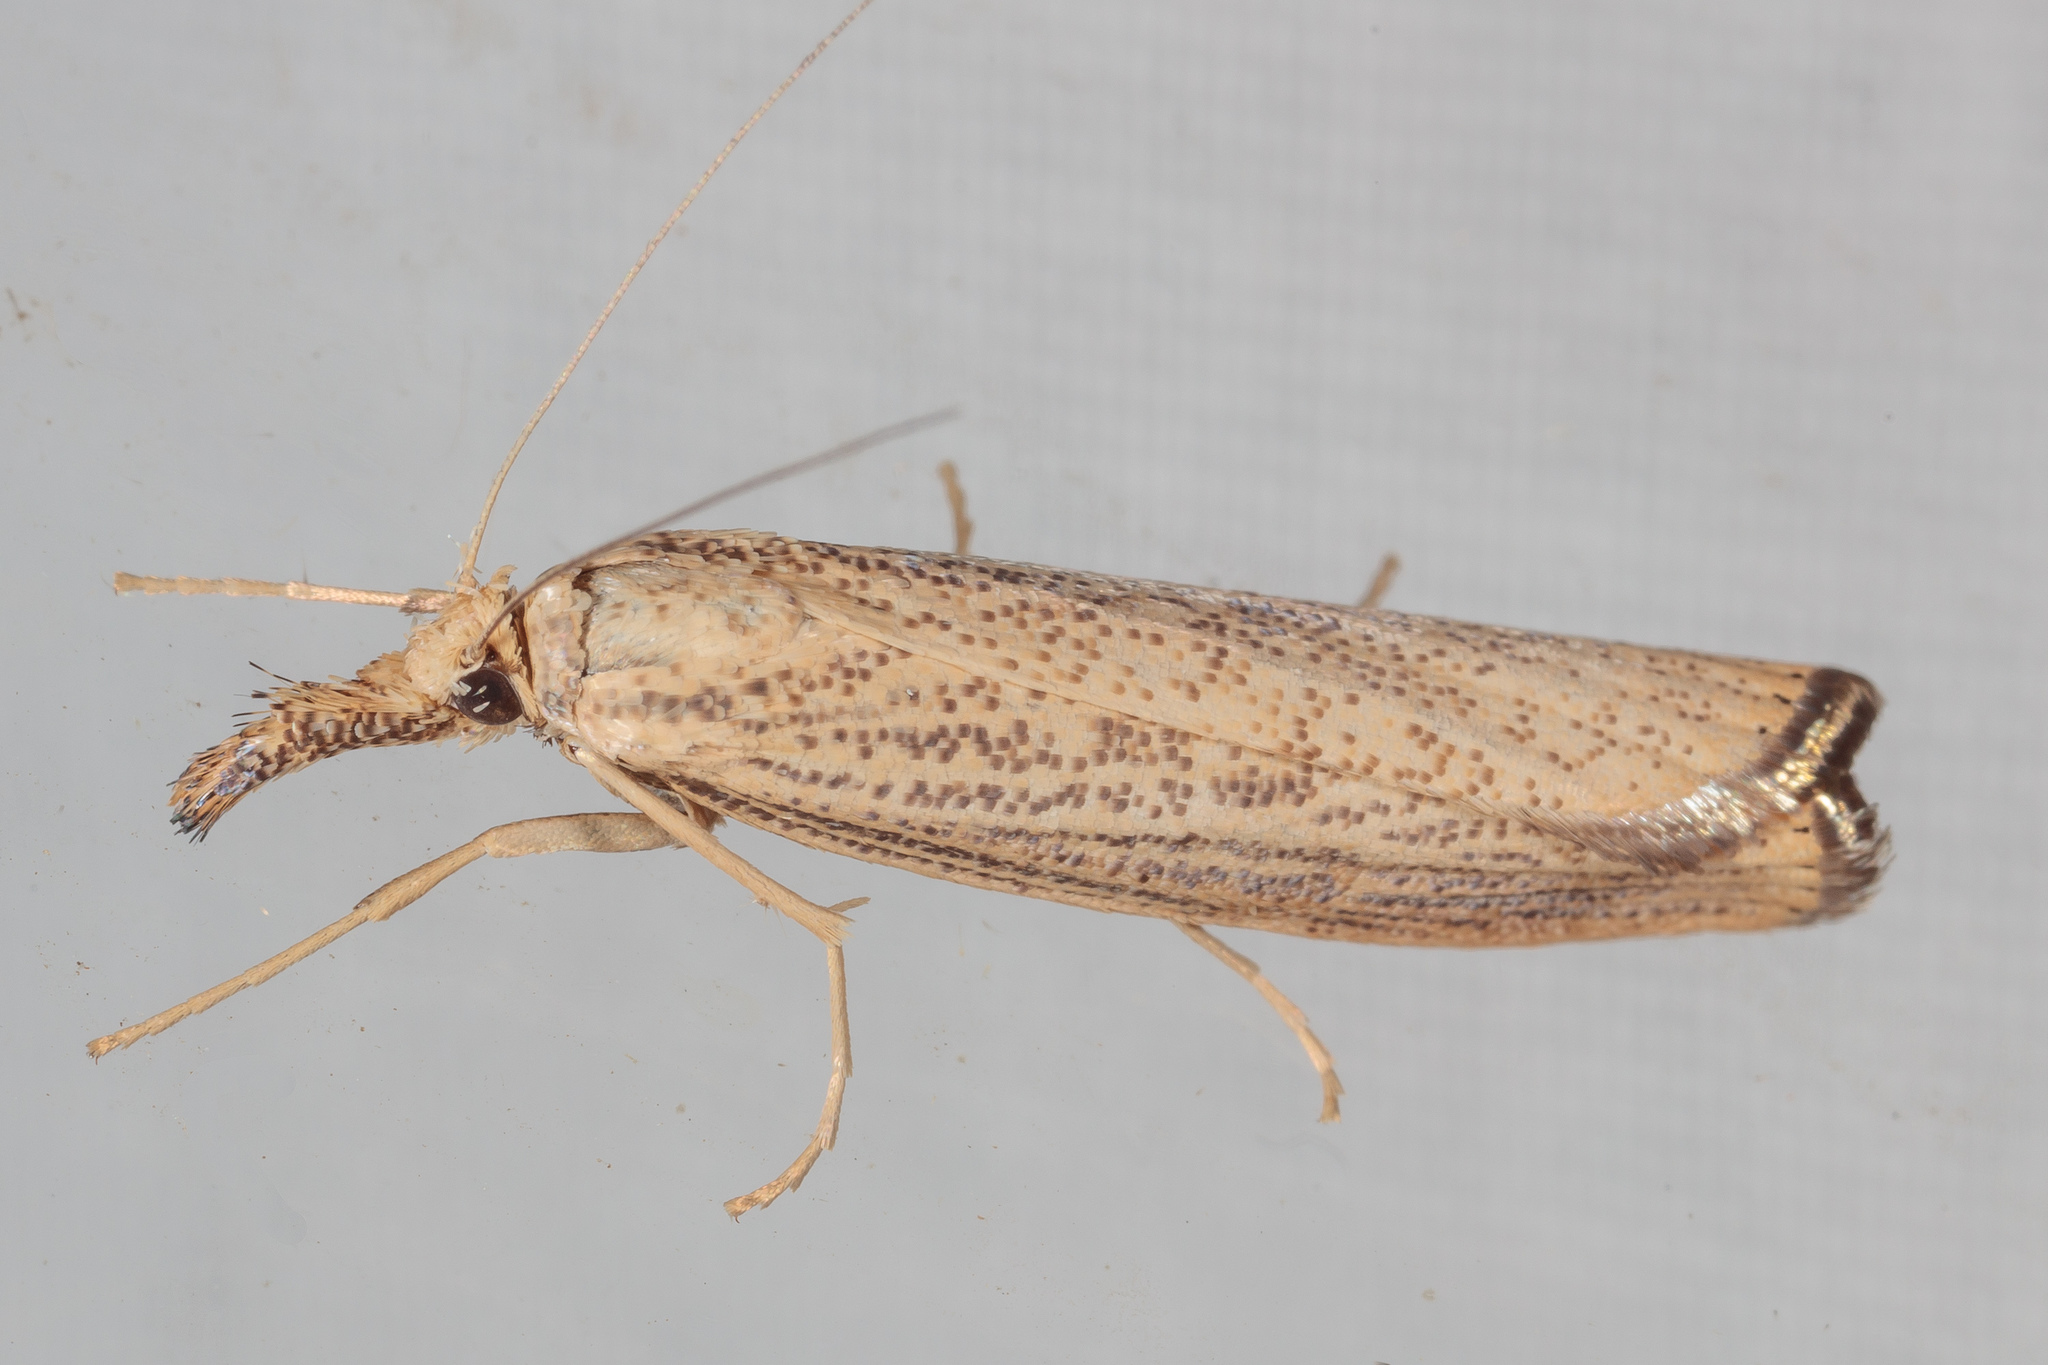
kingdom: Animalia
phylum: Arthropoda
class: Insecta
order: Lepidoptera
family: Crambidae
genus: Agriphila
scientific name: Agriphila vulgivagellus
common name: Vagabond crambus moth
